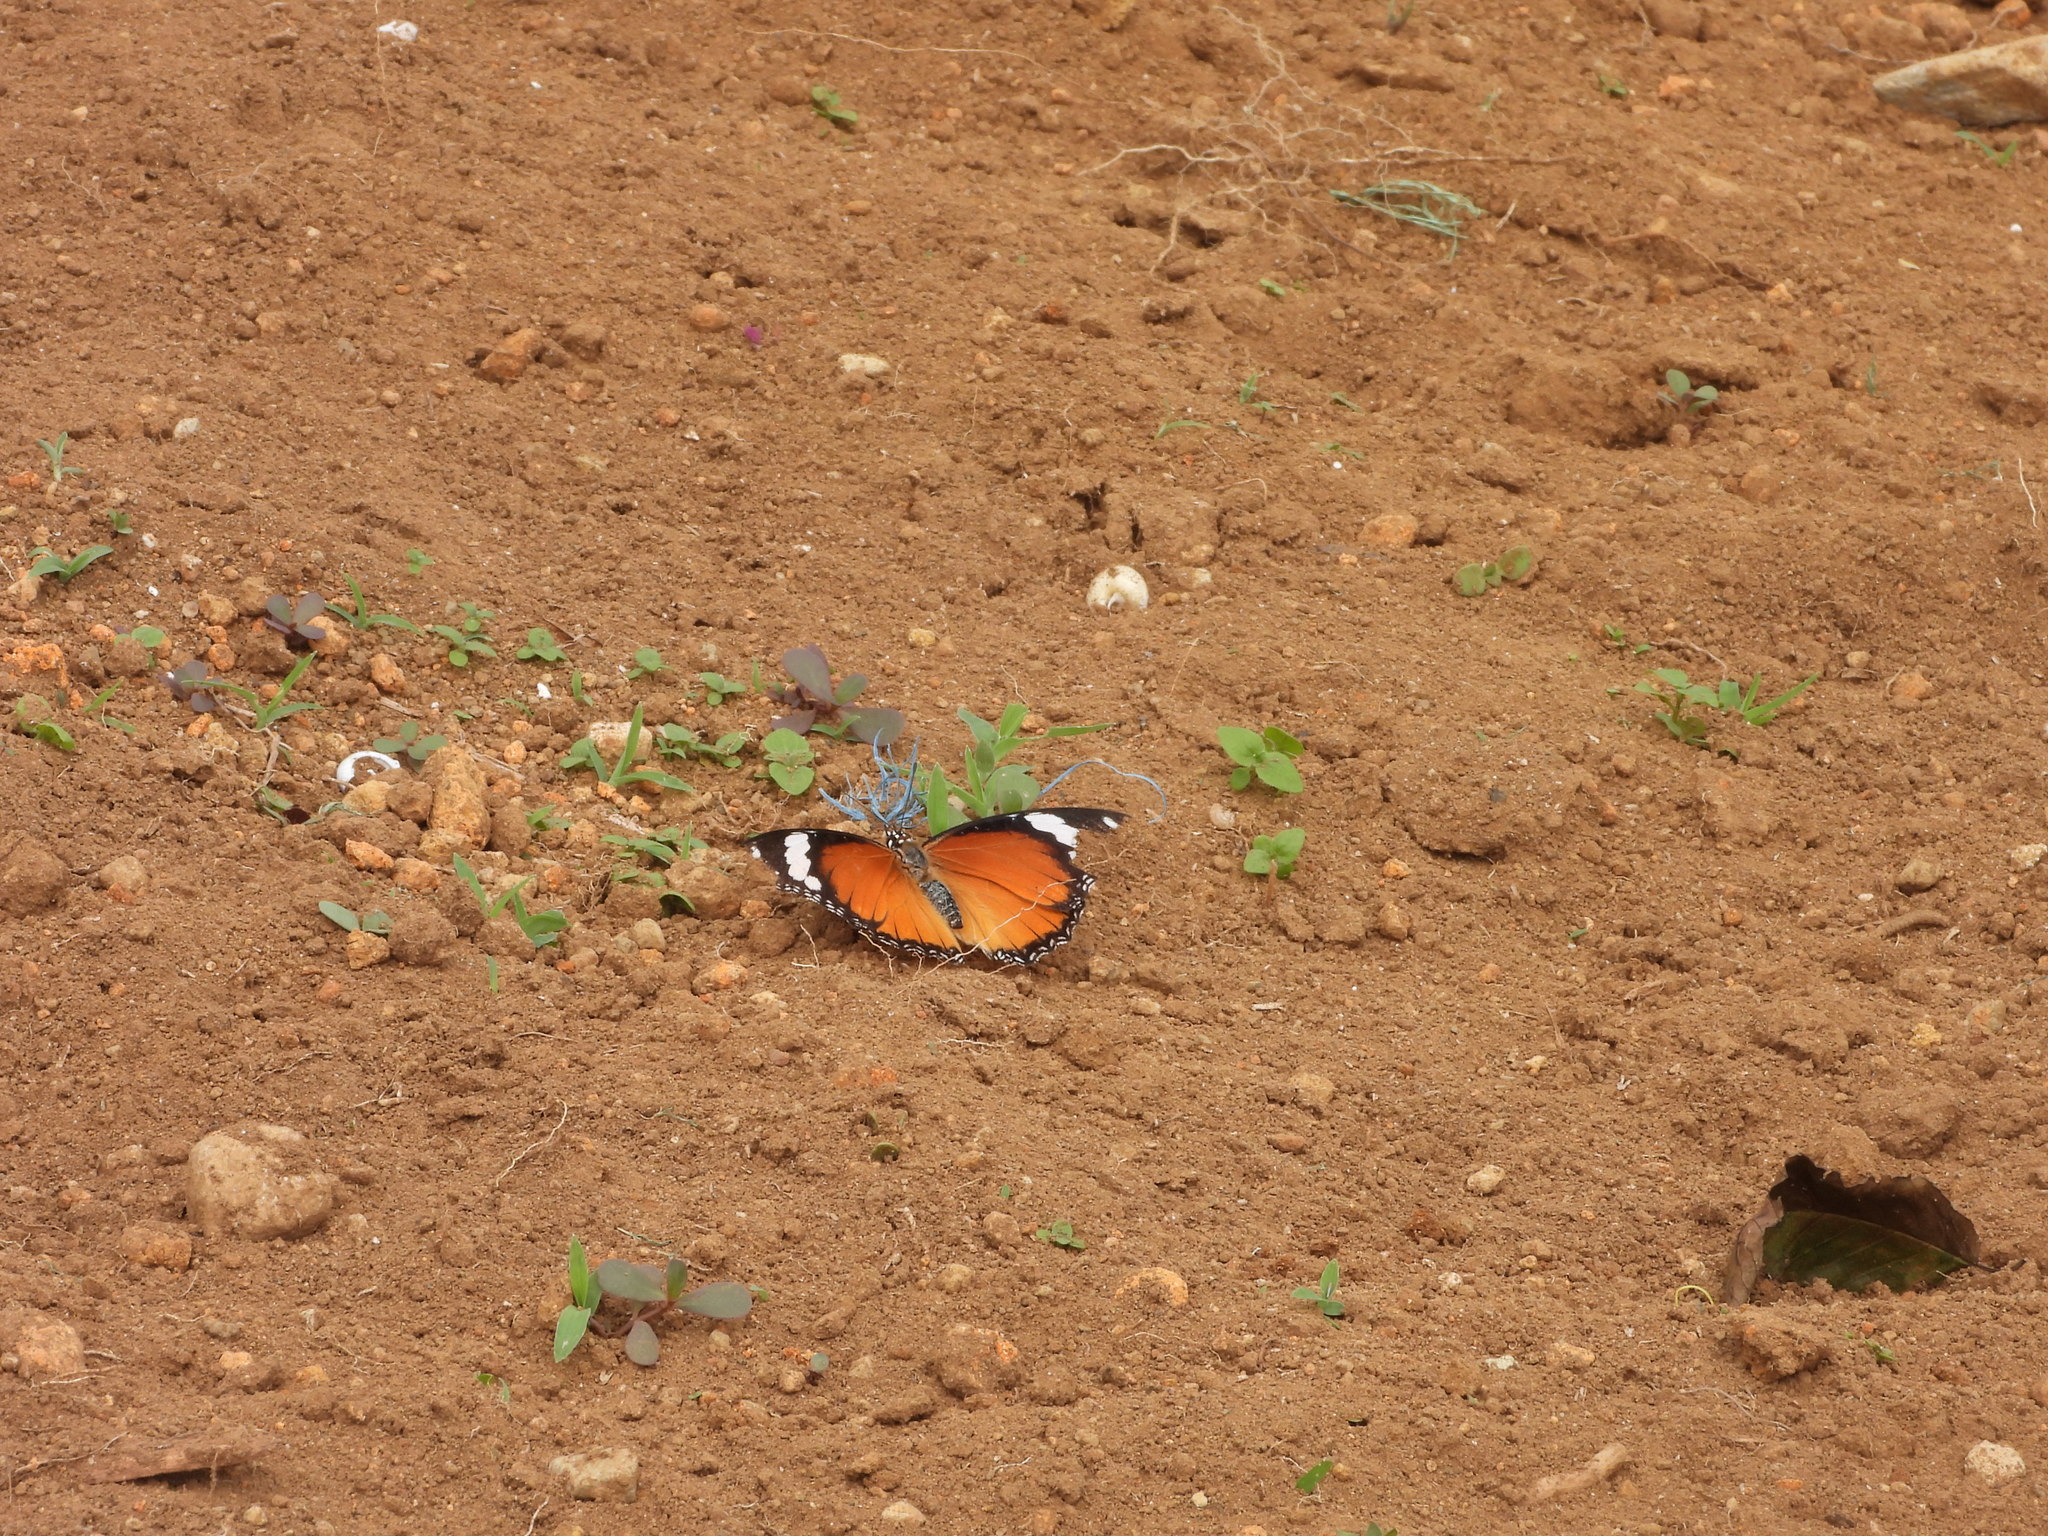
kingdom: Animalia
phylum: Arthropoda
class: Insecta
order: Lepidoptera
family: Nymphalidae
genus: Hypolimnas
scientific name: Hypolimnas misippus
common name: False plain tiger
